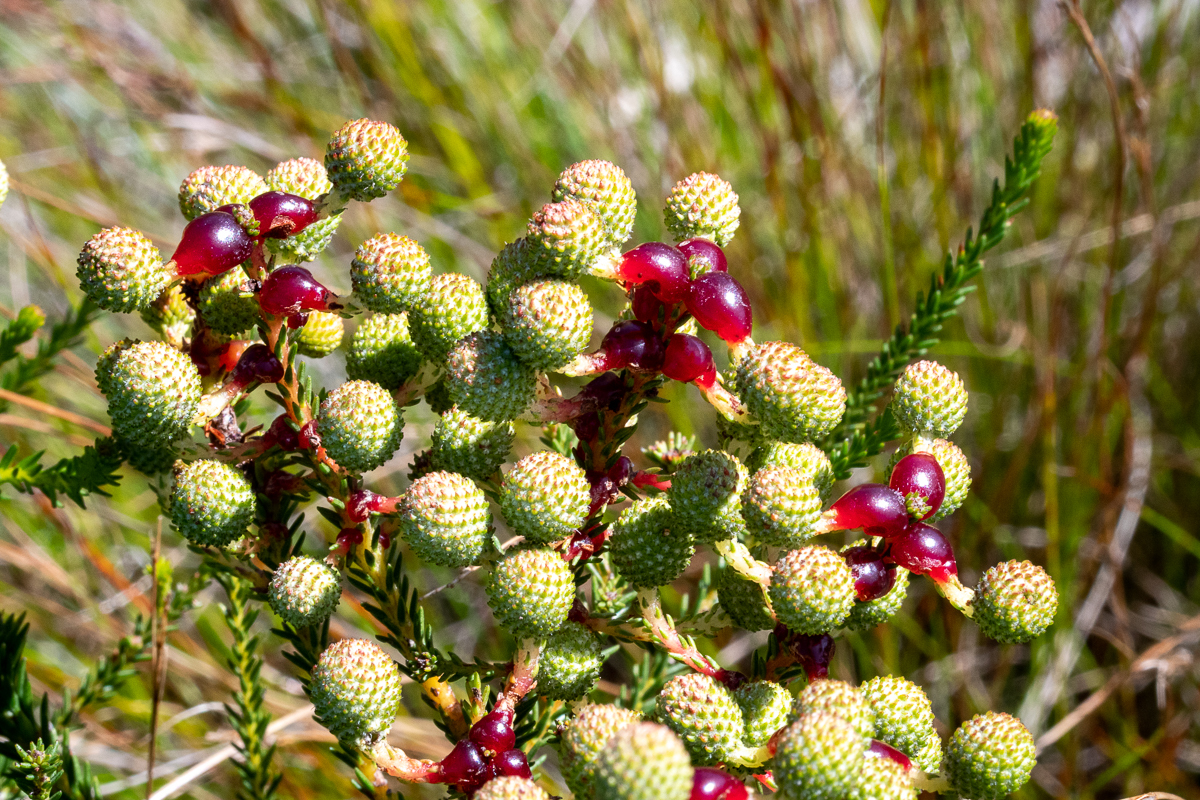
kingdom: Plantae
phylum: Tracheophyta
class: Magnoliopsida
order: Bruniales
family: Bruniaceae
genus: Berzelia
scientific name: Berzelia abrotanoides
